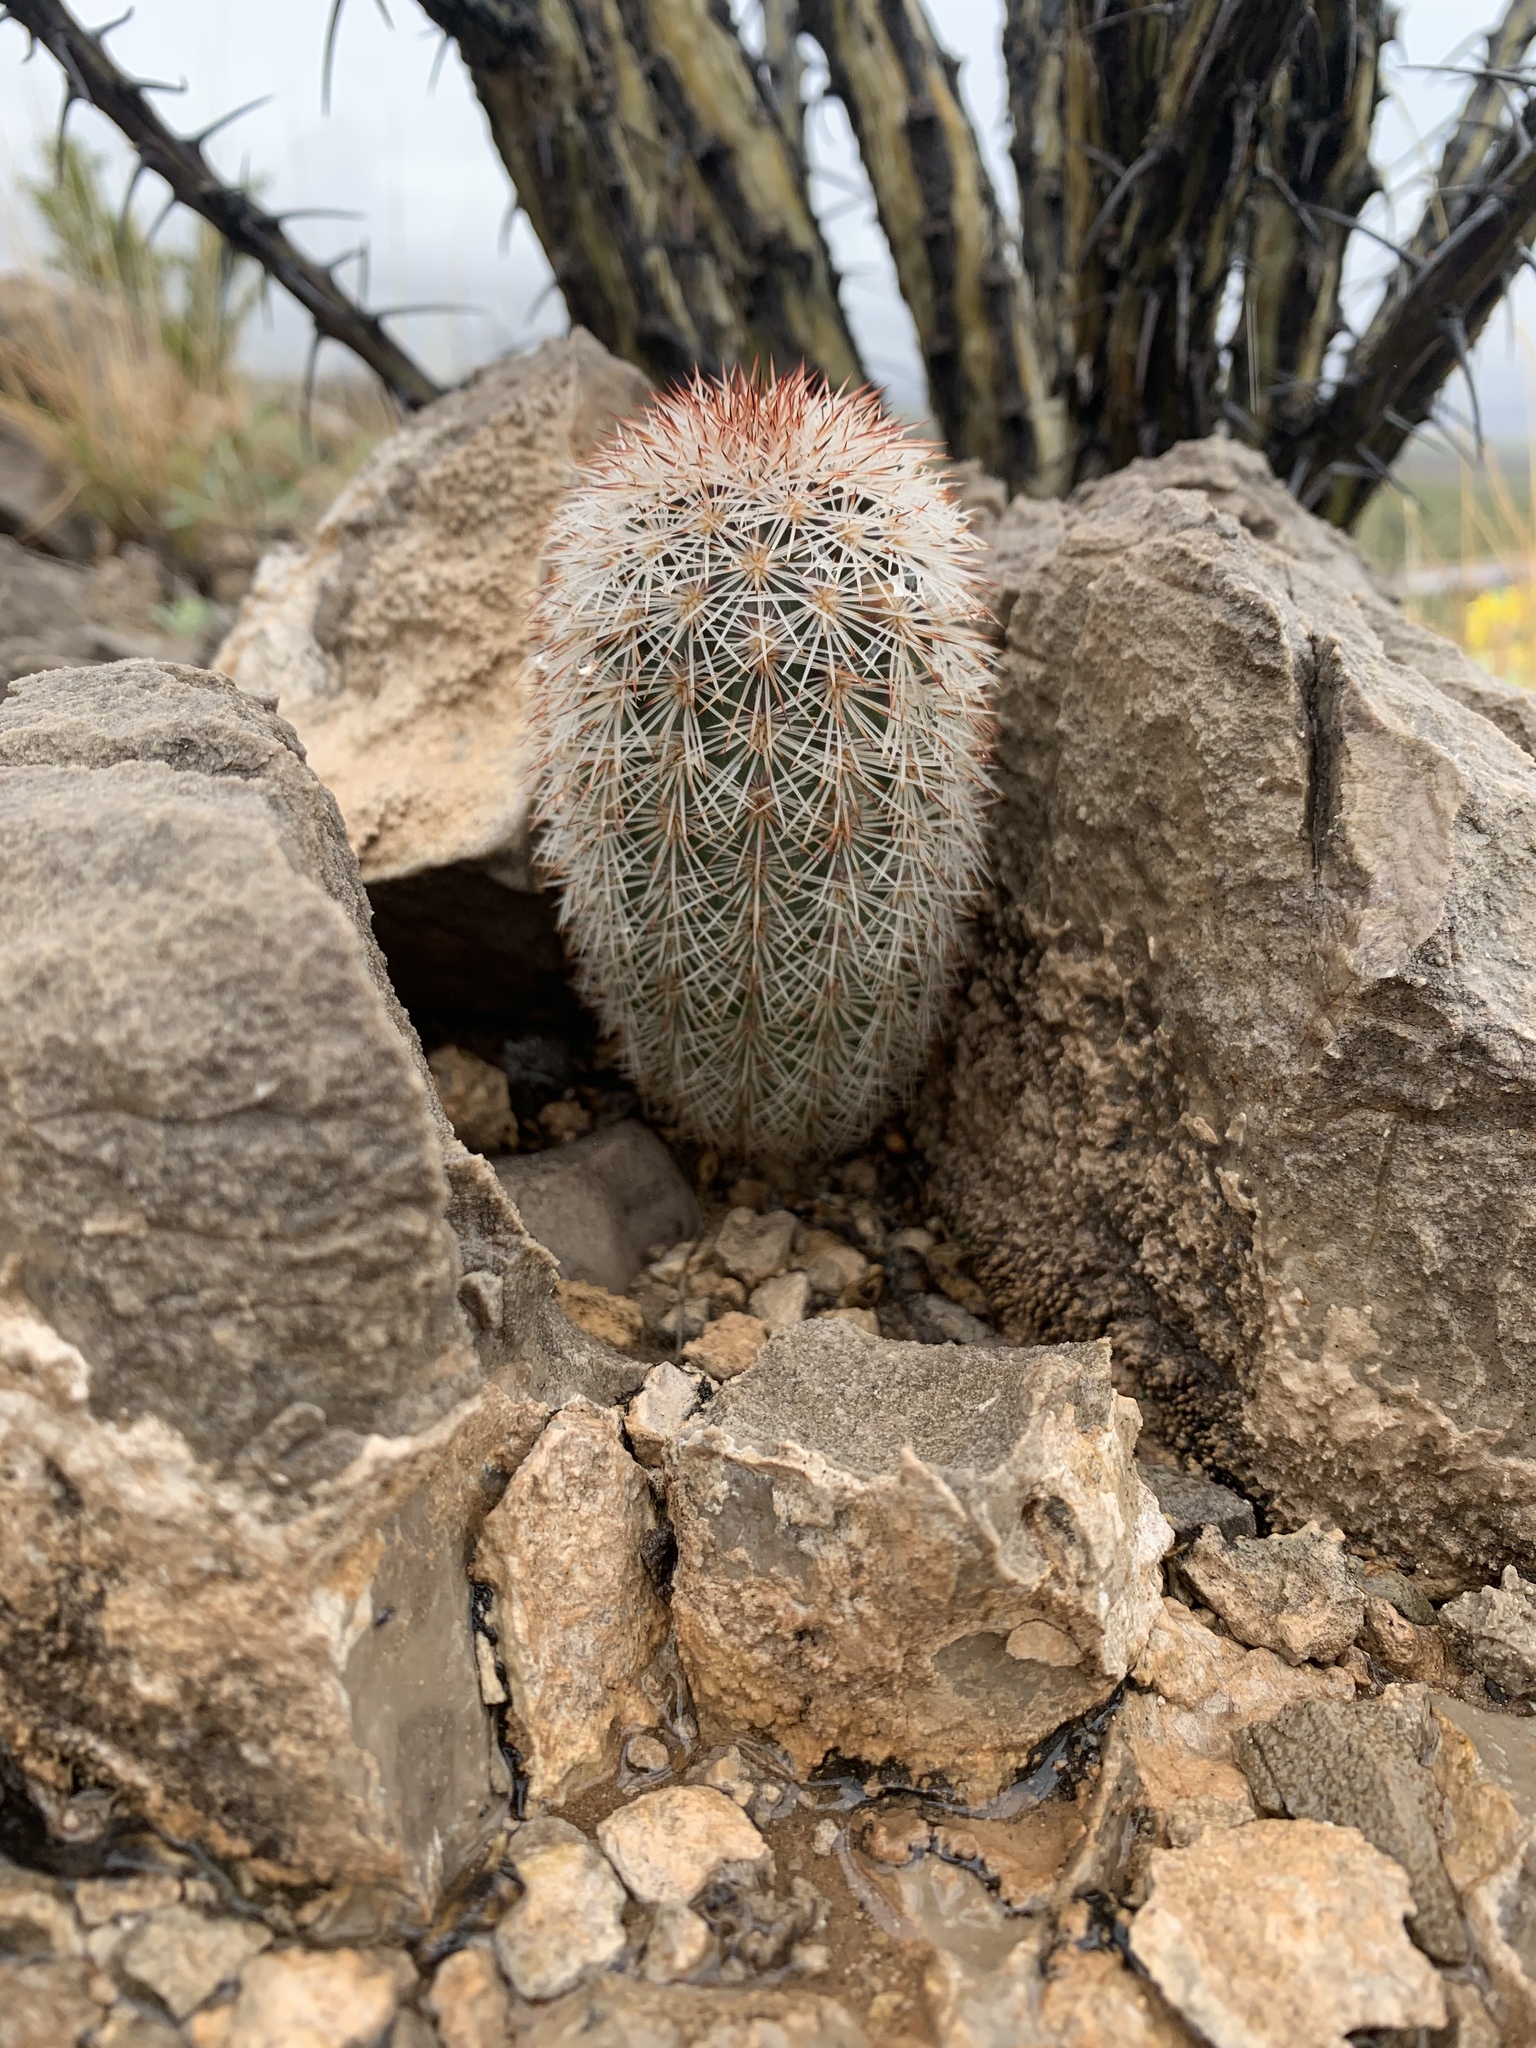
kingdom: Plantae
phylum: Tracheophyta
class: Magnoliopsida
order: Caryophyllales
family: Cactaceae
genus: Echinocereus
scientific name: Echinocereus dasyacanthus
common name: Spiny hedgehog cactus
